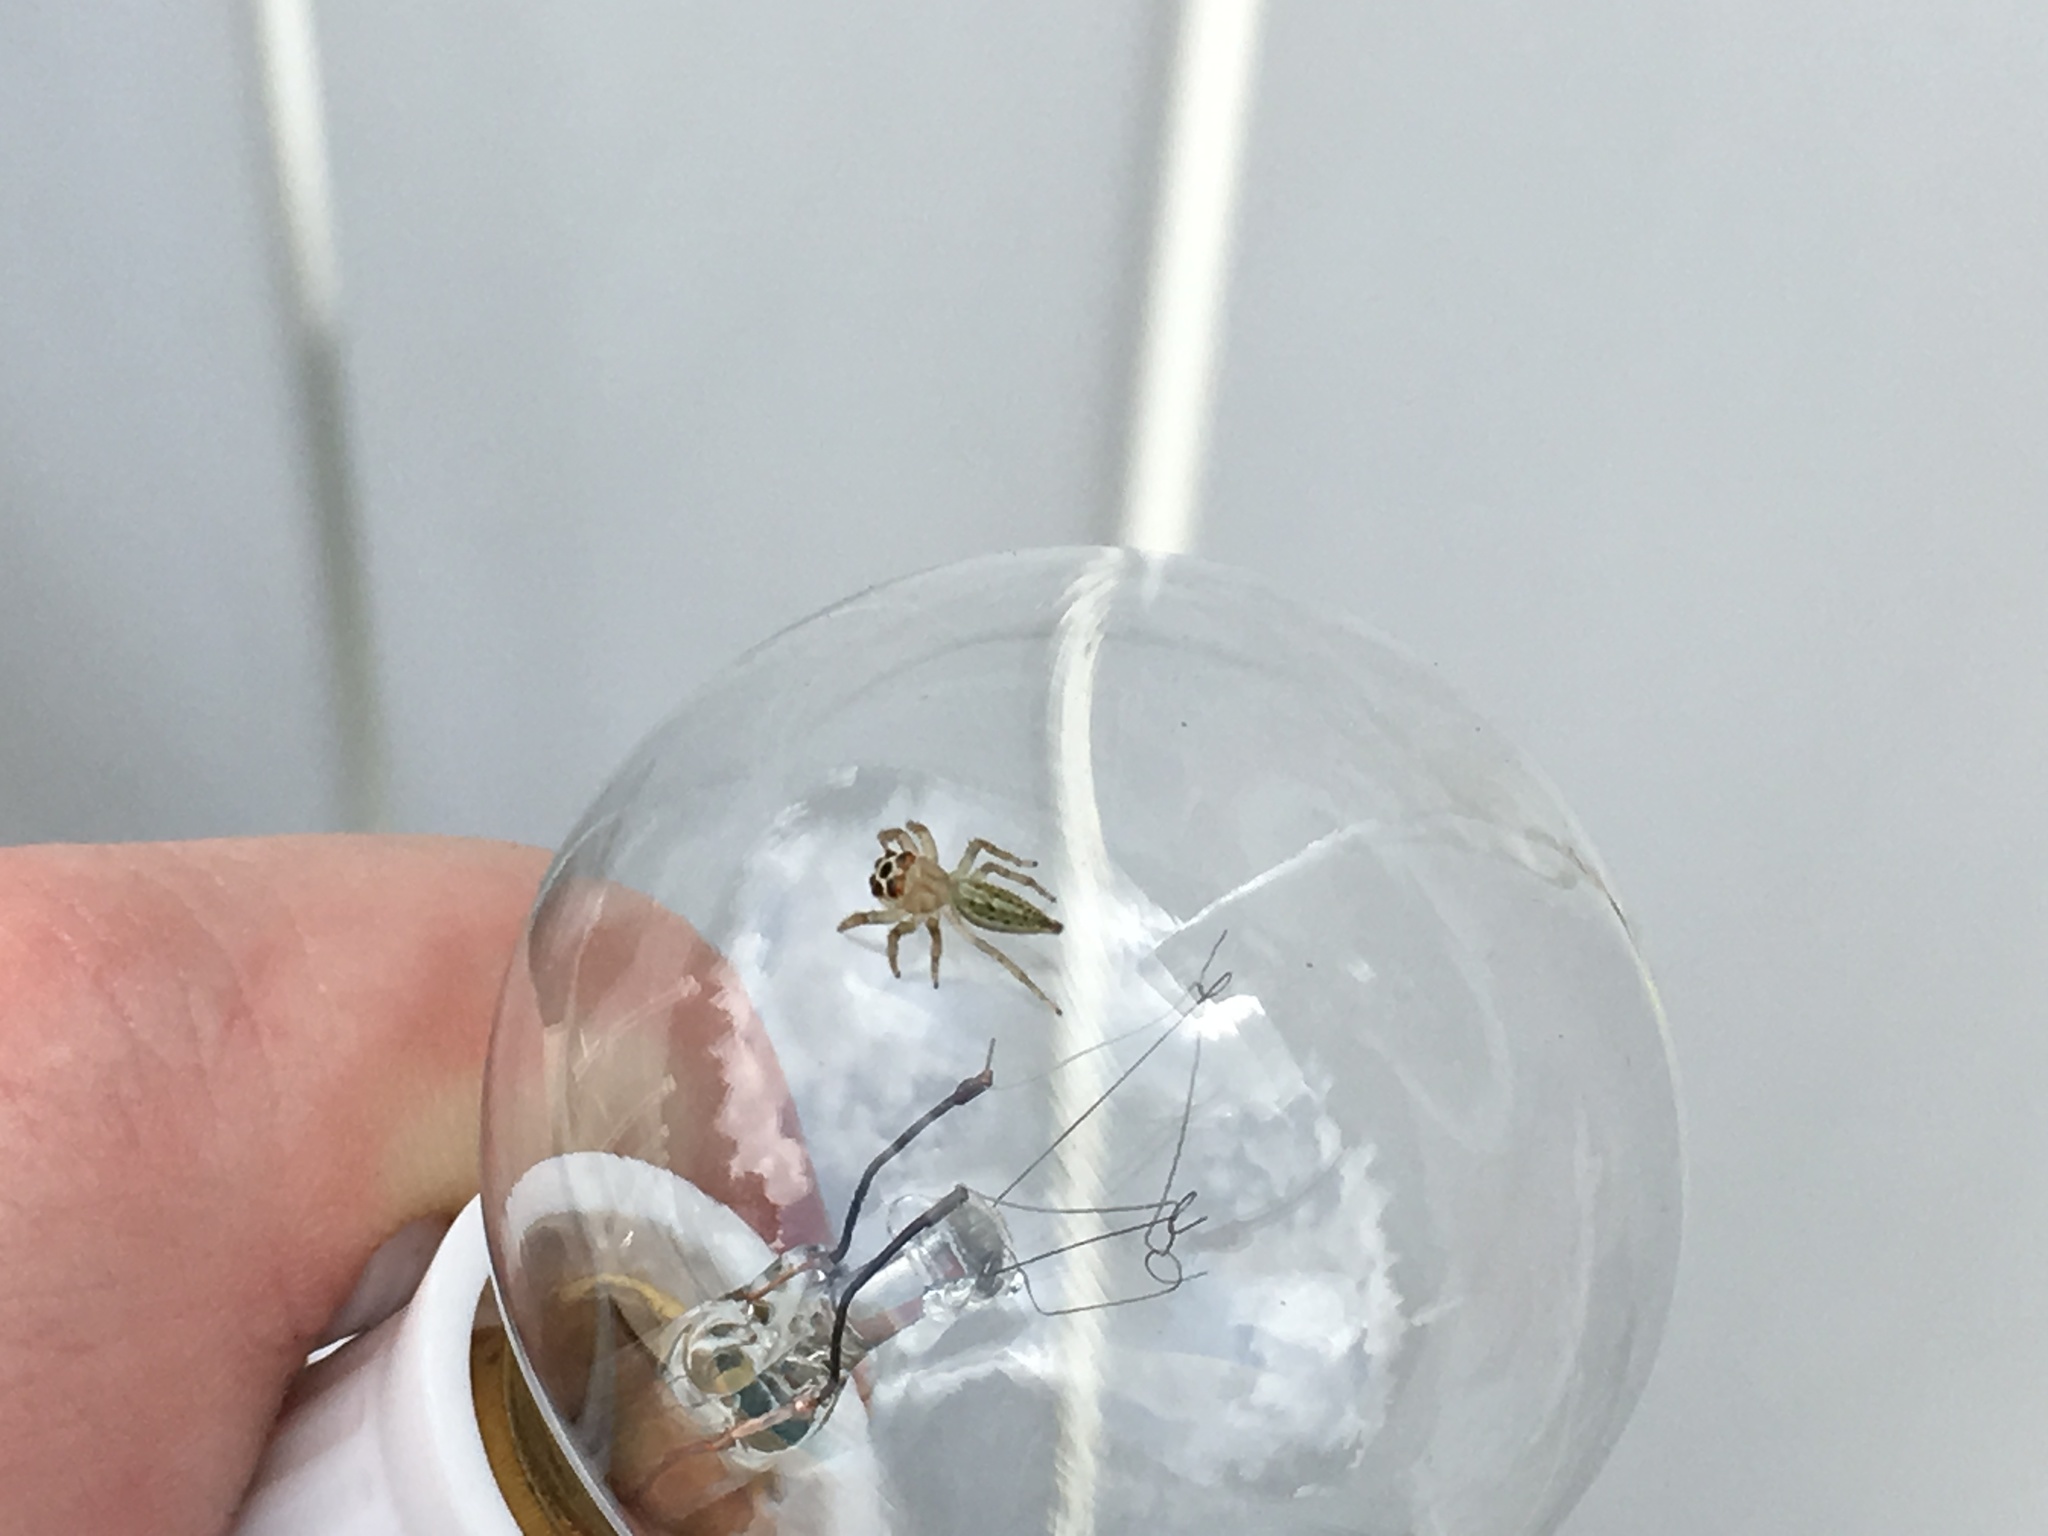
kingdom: Animalia
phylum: Arthropoda
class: Arachnida
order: Araneae
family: Salticidae
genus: Colonus
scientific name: Colonus sylvanus
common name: Jumping spiders
